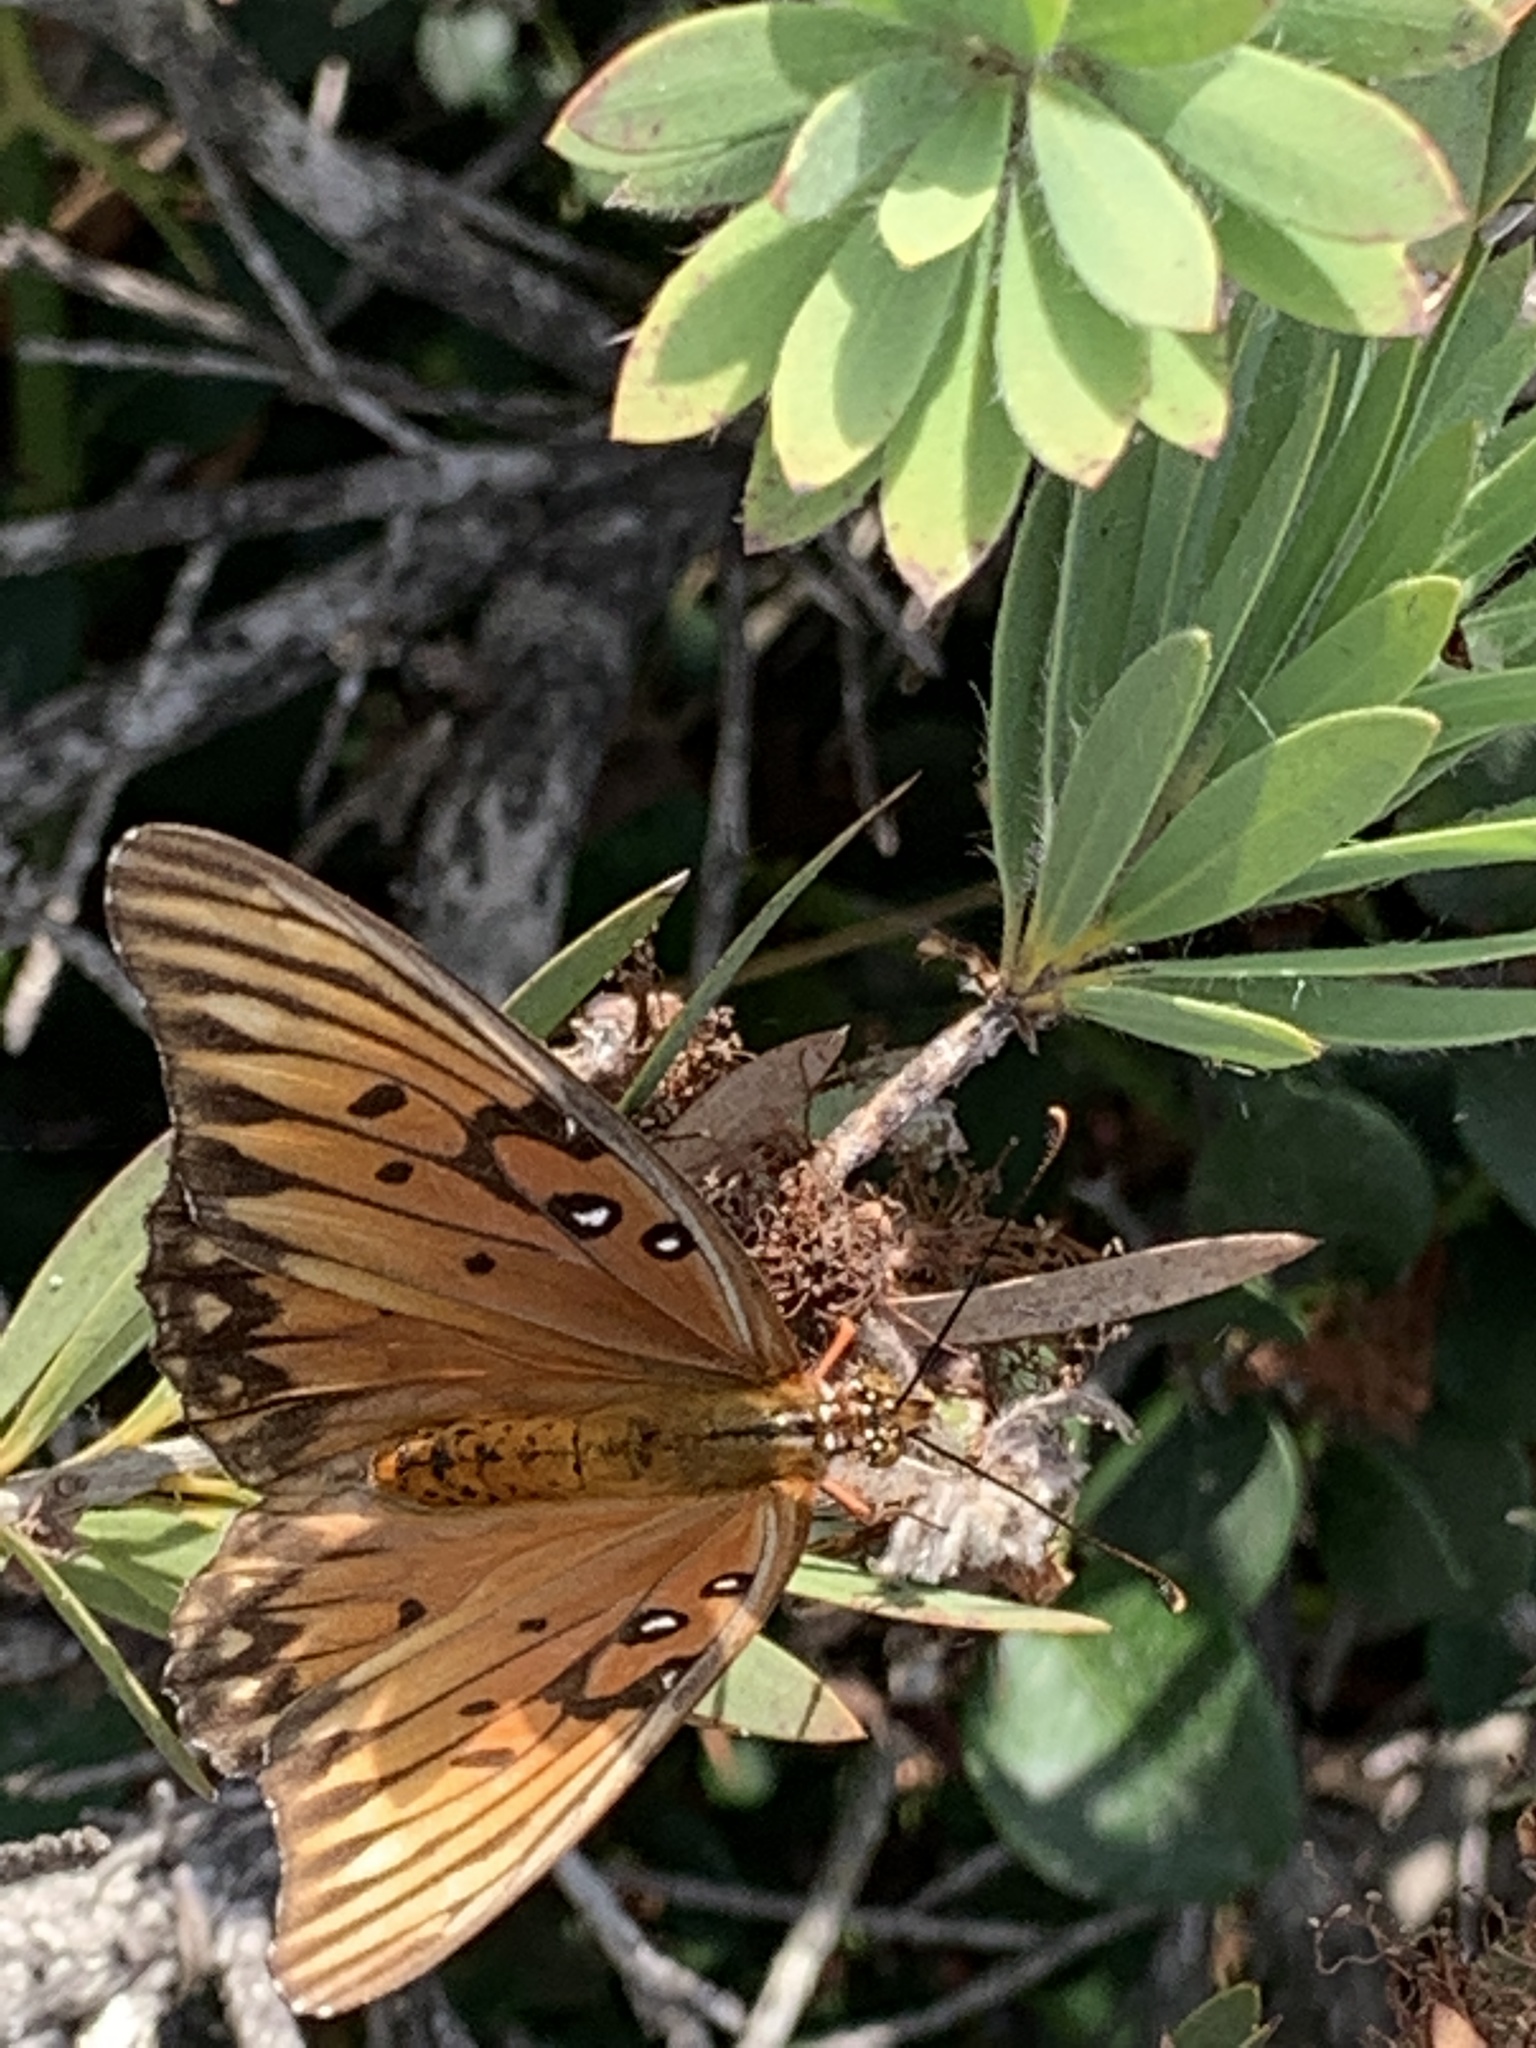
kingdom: Animalia
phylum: Arthropoda
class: Insecta
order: Lepidoptera
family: Nymphalidae
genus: Dione
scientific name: Dione vanillae
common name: Gulf fritillary
